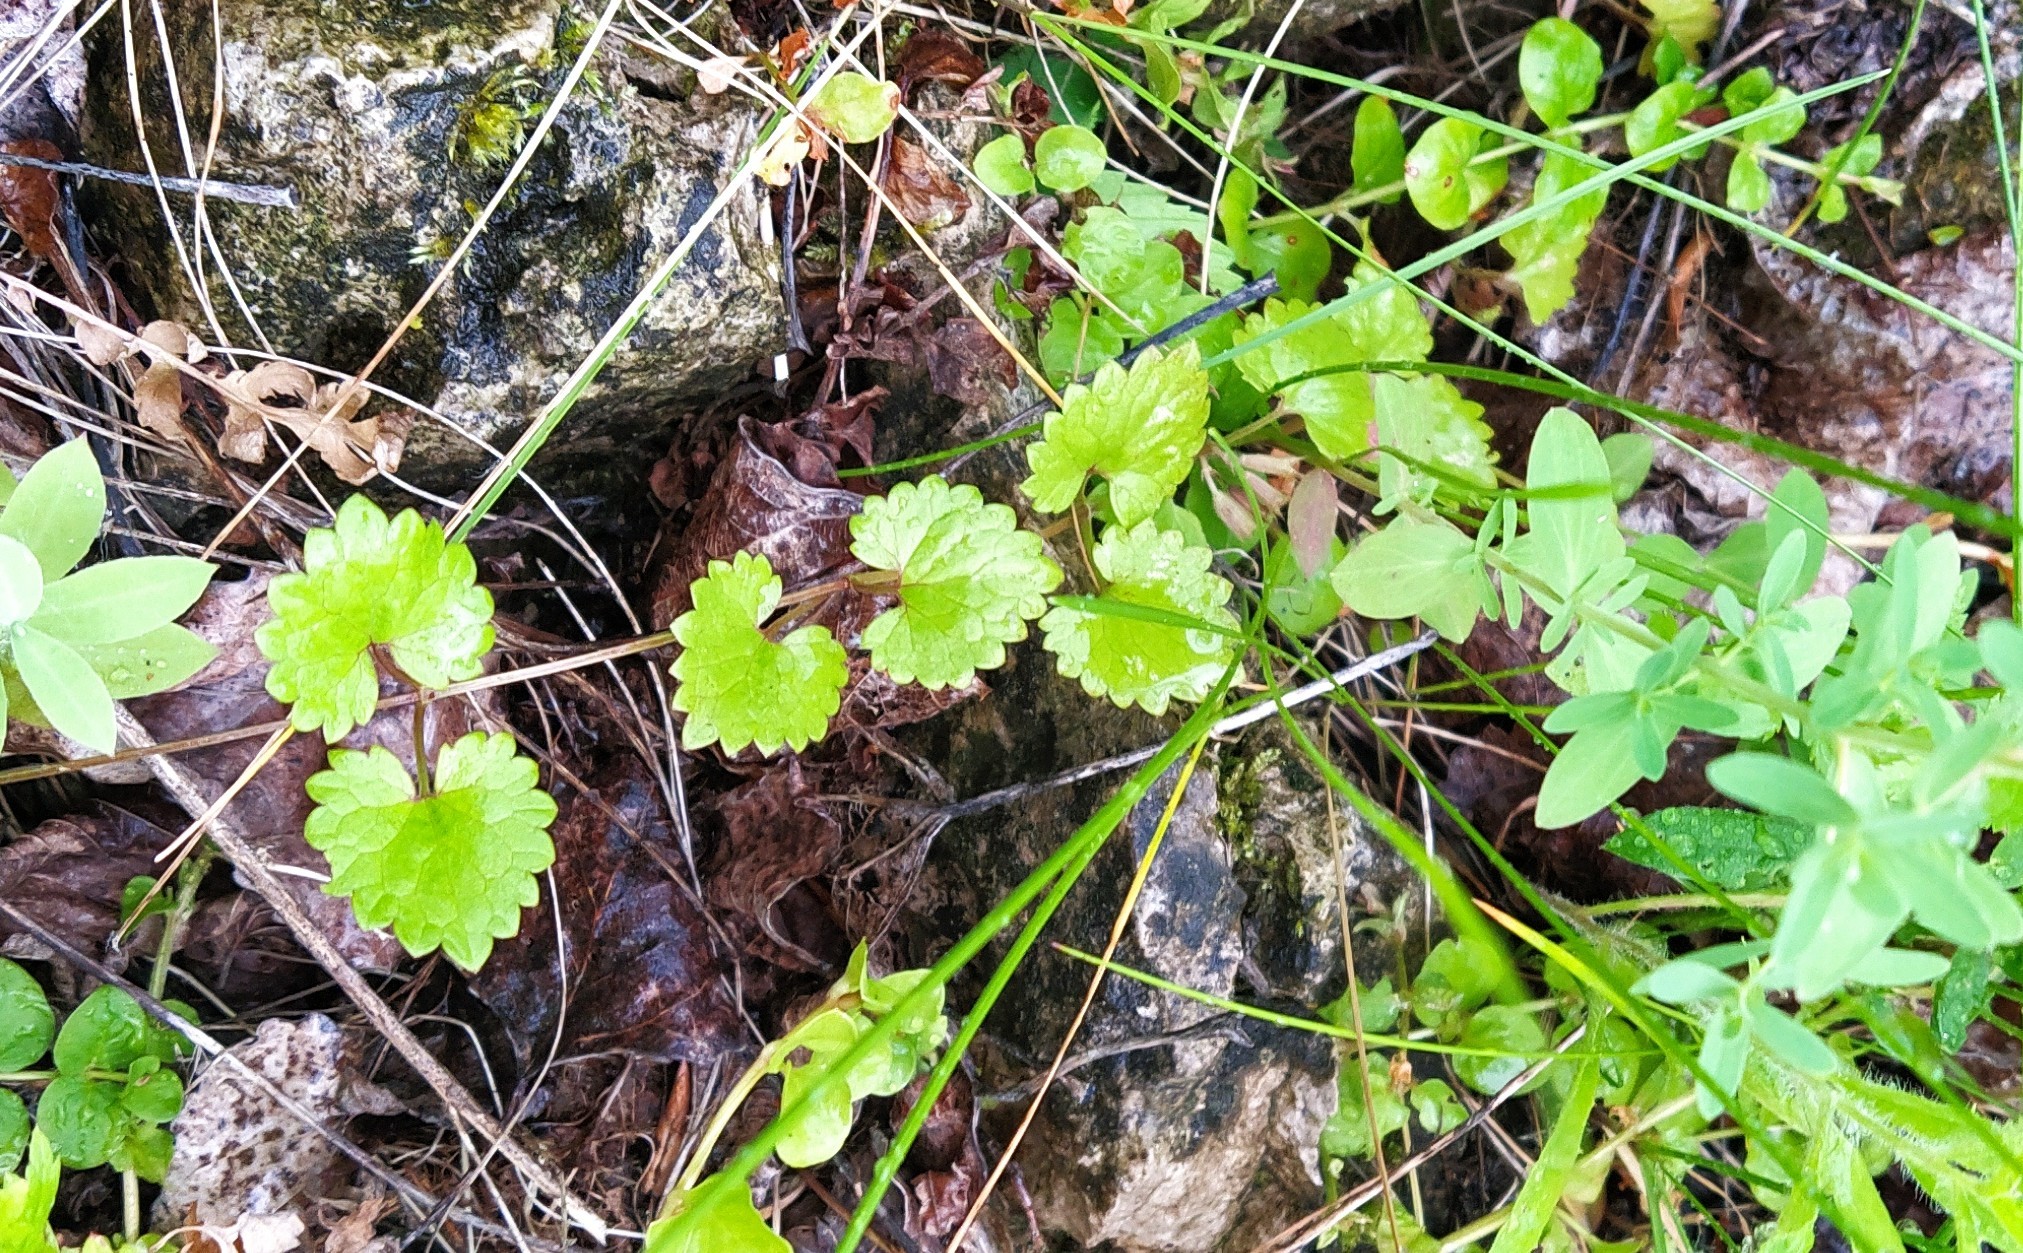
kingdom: Plantae
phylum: Tracheophyta
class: Magnoliopsida
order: Lamiales
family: Lamiaceae
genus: Glechoma
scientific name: Glechoma hederacea
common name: Ground ivy
